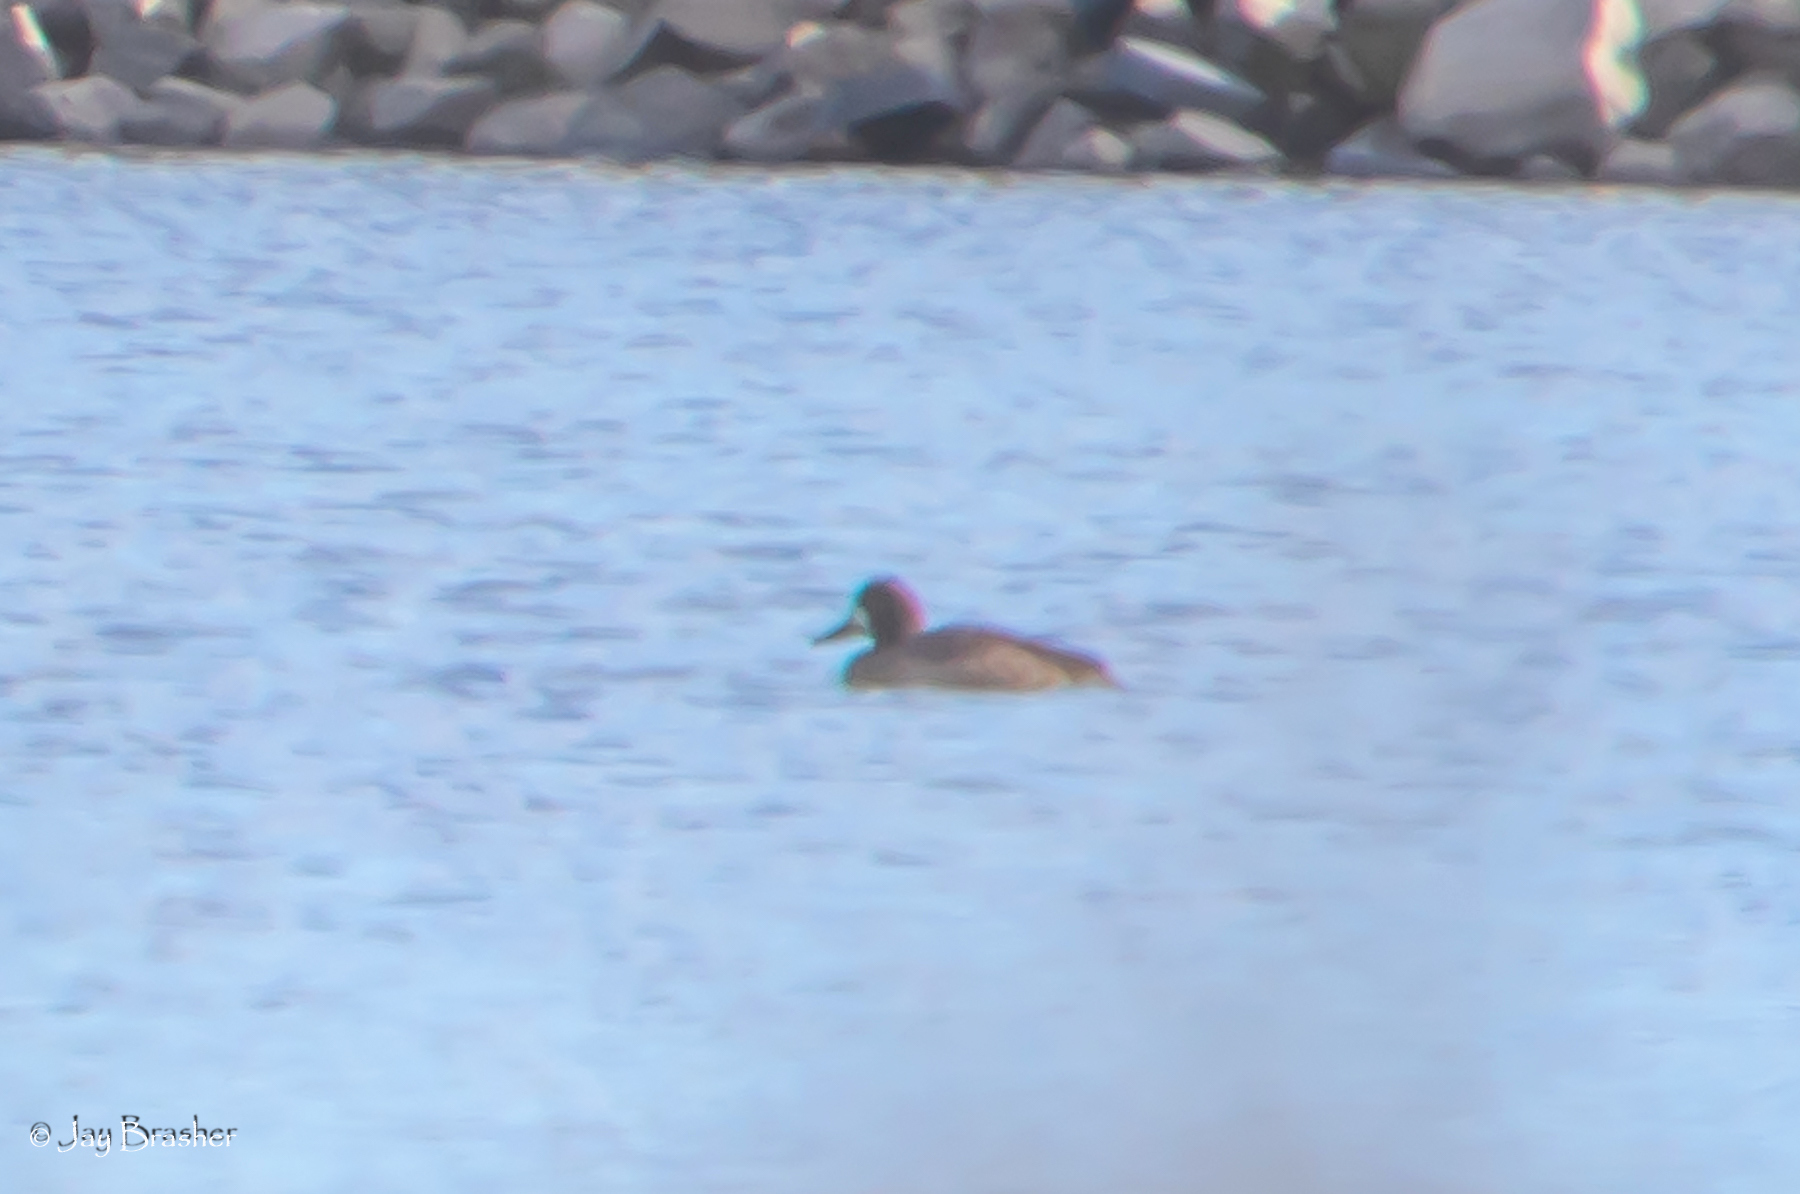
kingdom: Animalia
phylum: Chordata
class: Aves
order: Anseriformes
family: Anatidae
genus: Aythya
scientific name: Aythya affinis
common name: Lesser scaup
